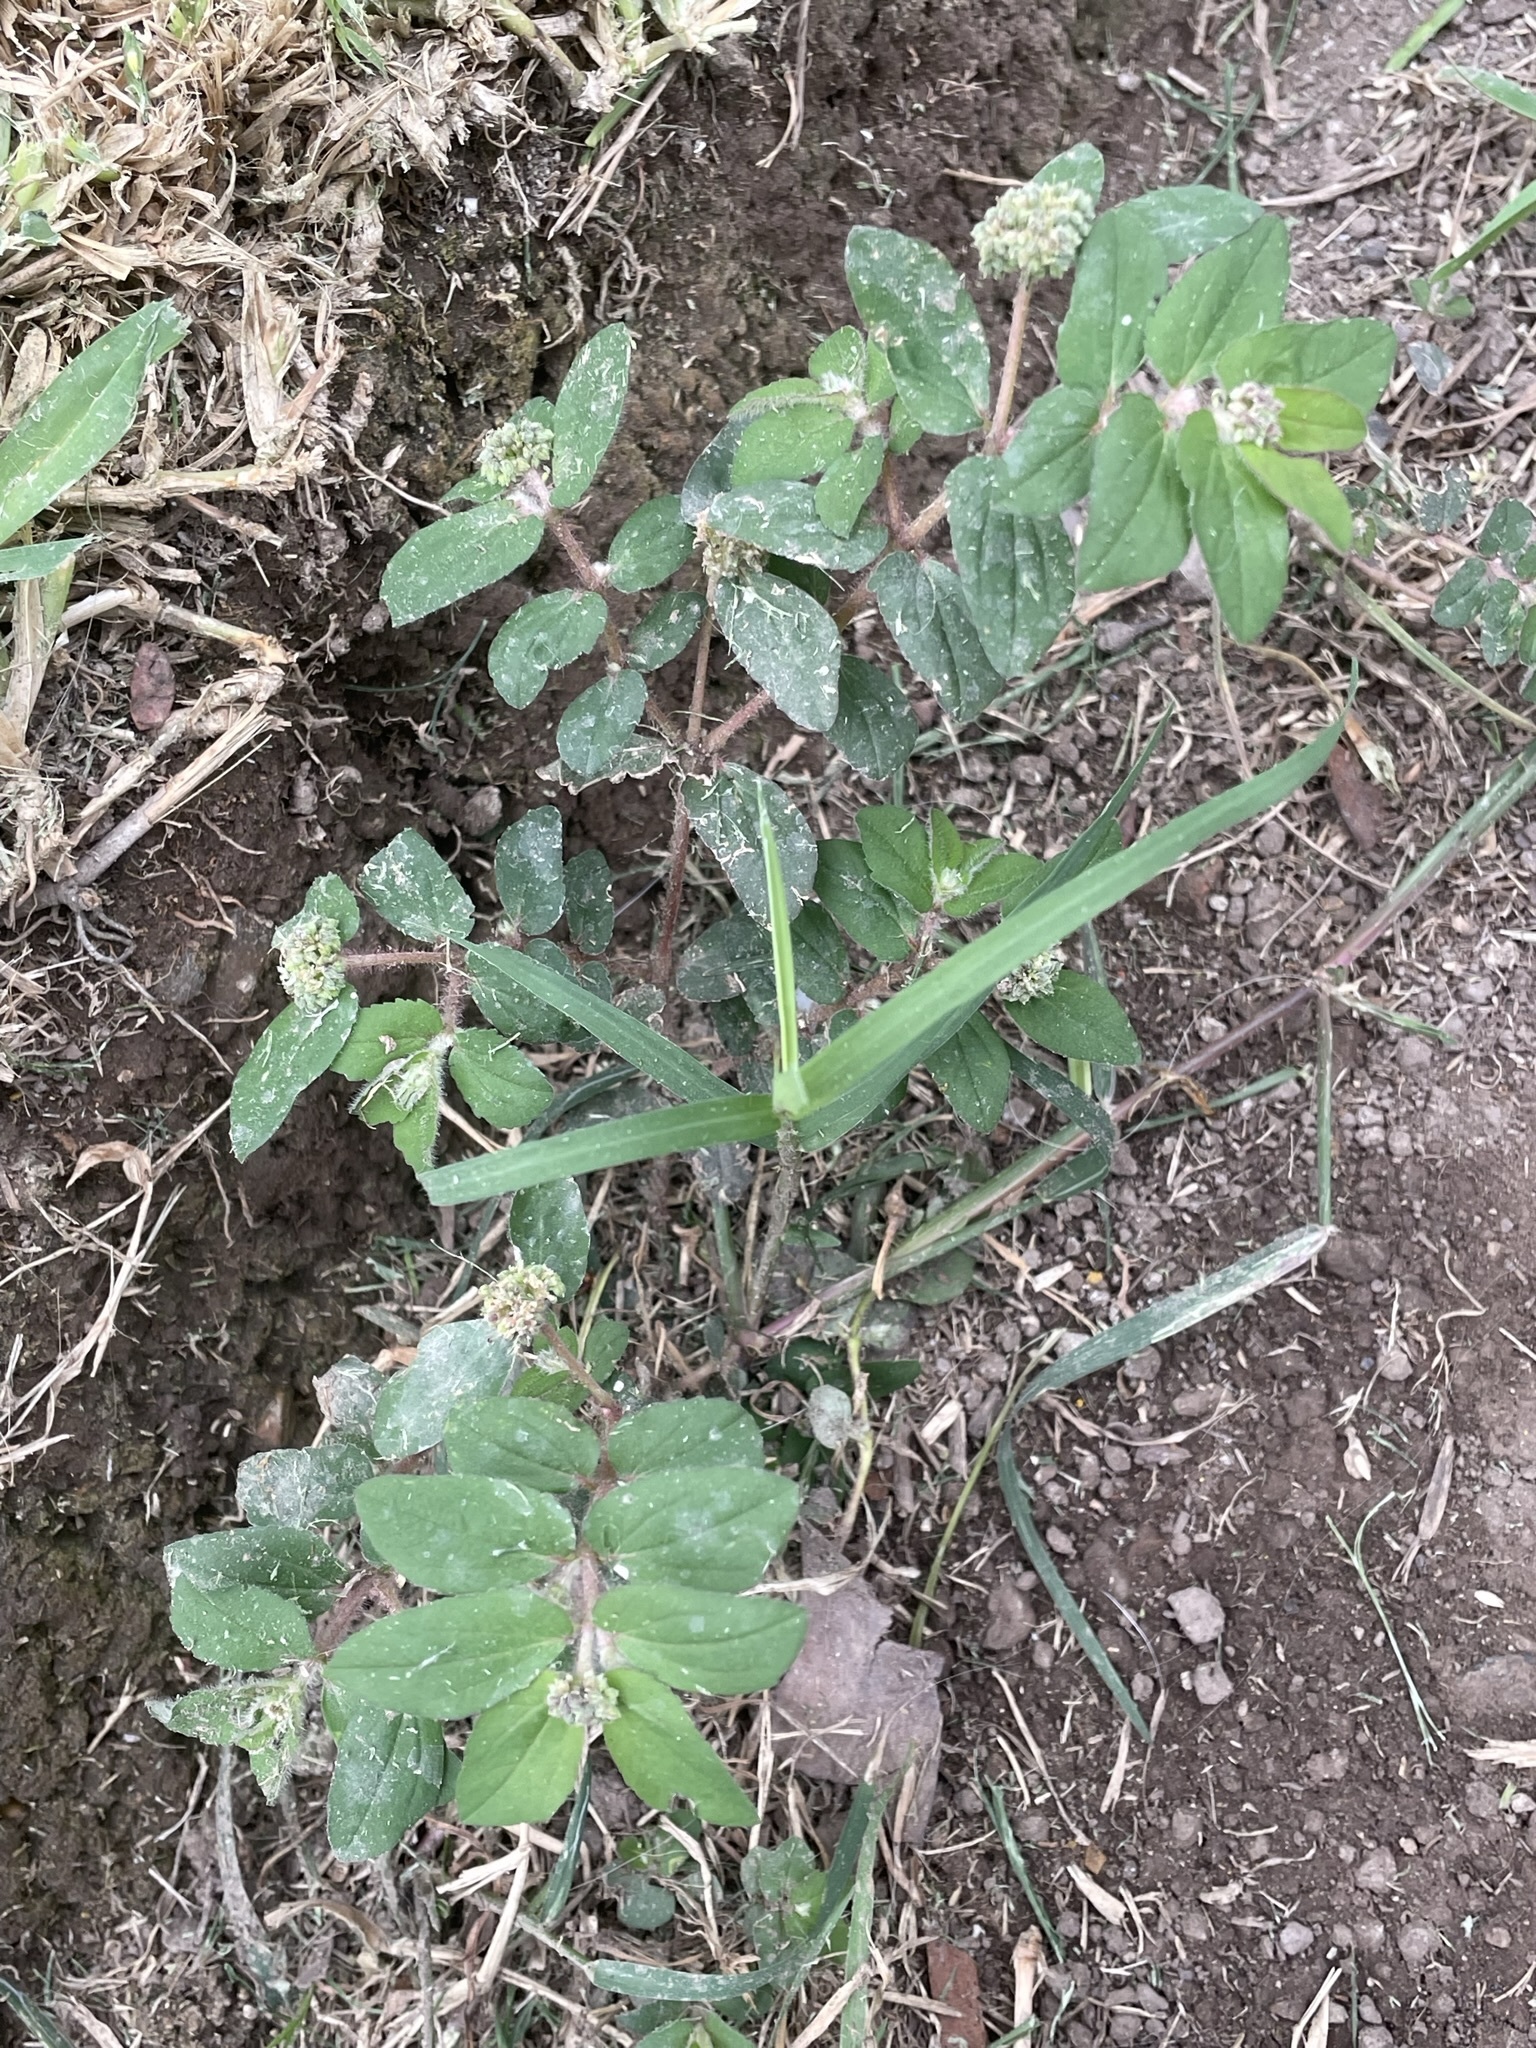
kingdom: Plantae
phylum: Tracheophyta
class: Magnoliopsida
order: Malpighiales
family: Euphorbiaceae
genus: Euphorbia
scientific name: Euphorbia ophthalmica
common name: Florida hammock sandmat
